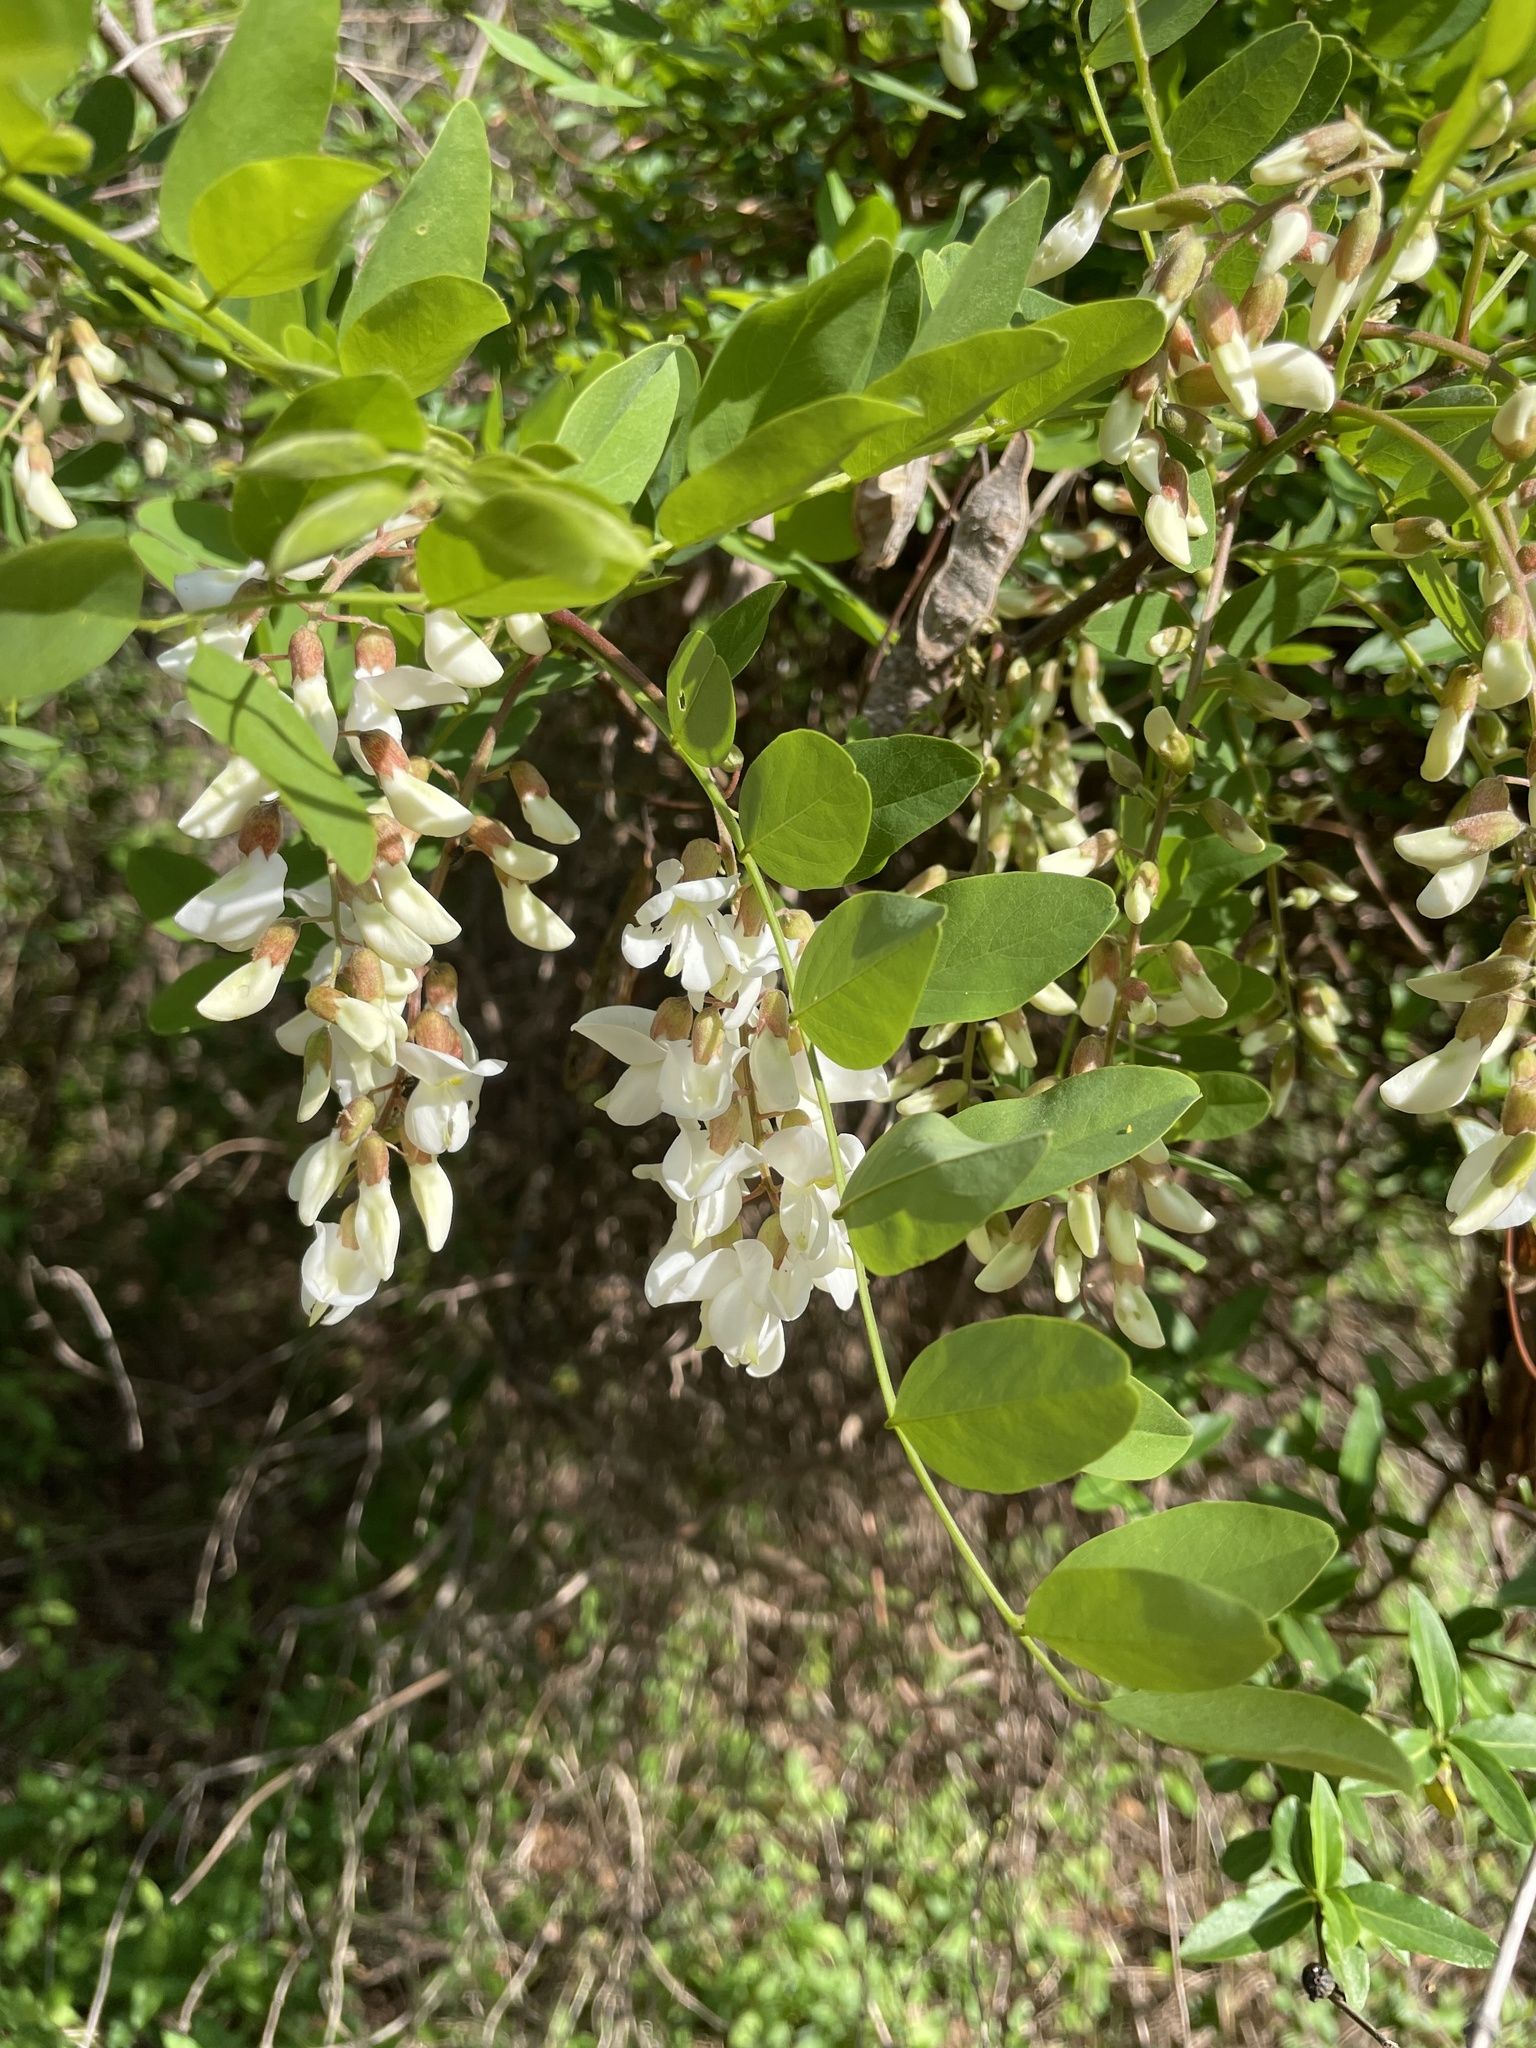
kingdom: Plantae
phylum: Tracheophyta
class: Magnoliopsida
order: Fabales
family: Fabaceae
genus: Robinia
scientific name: Robinia pseudoacacia
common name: Black locust
